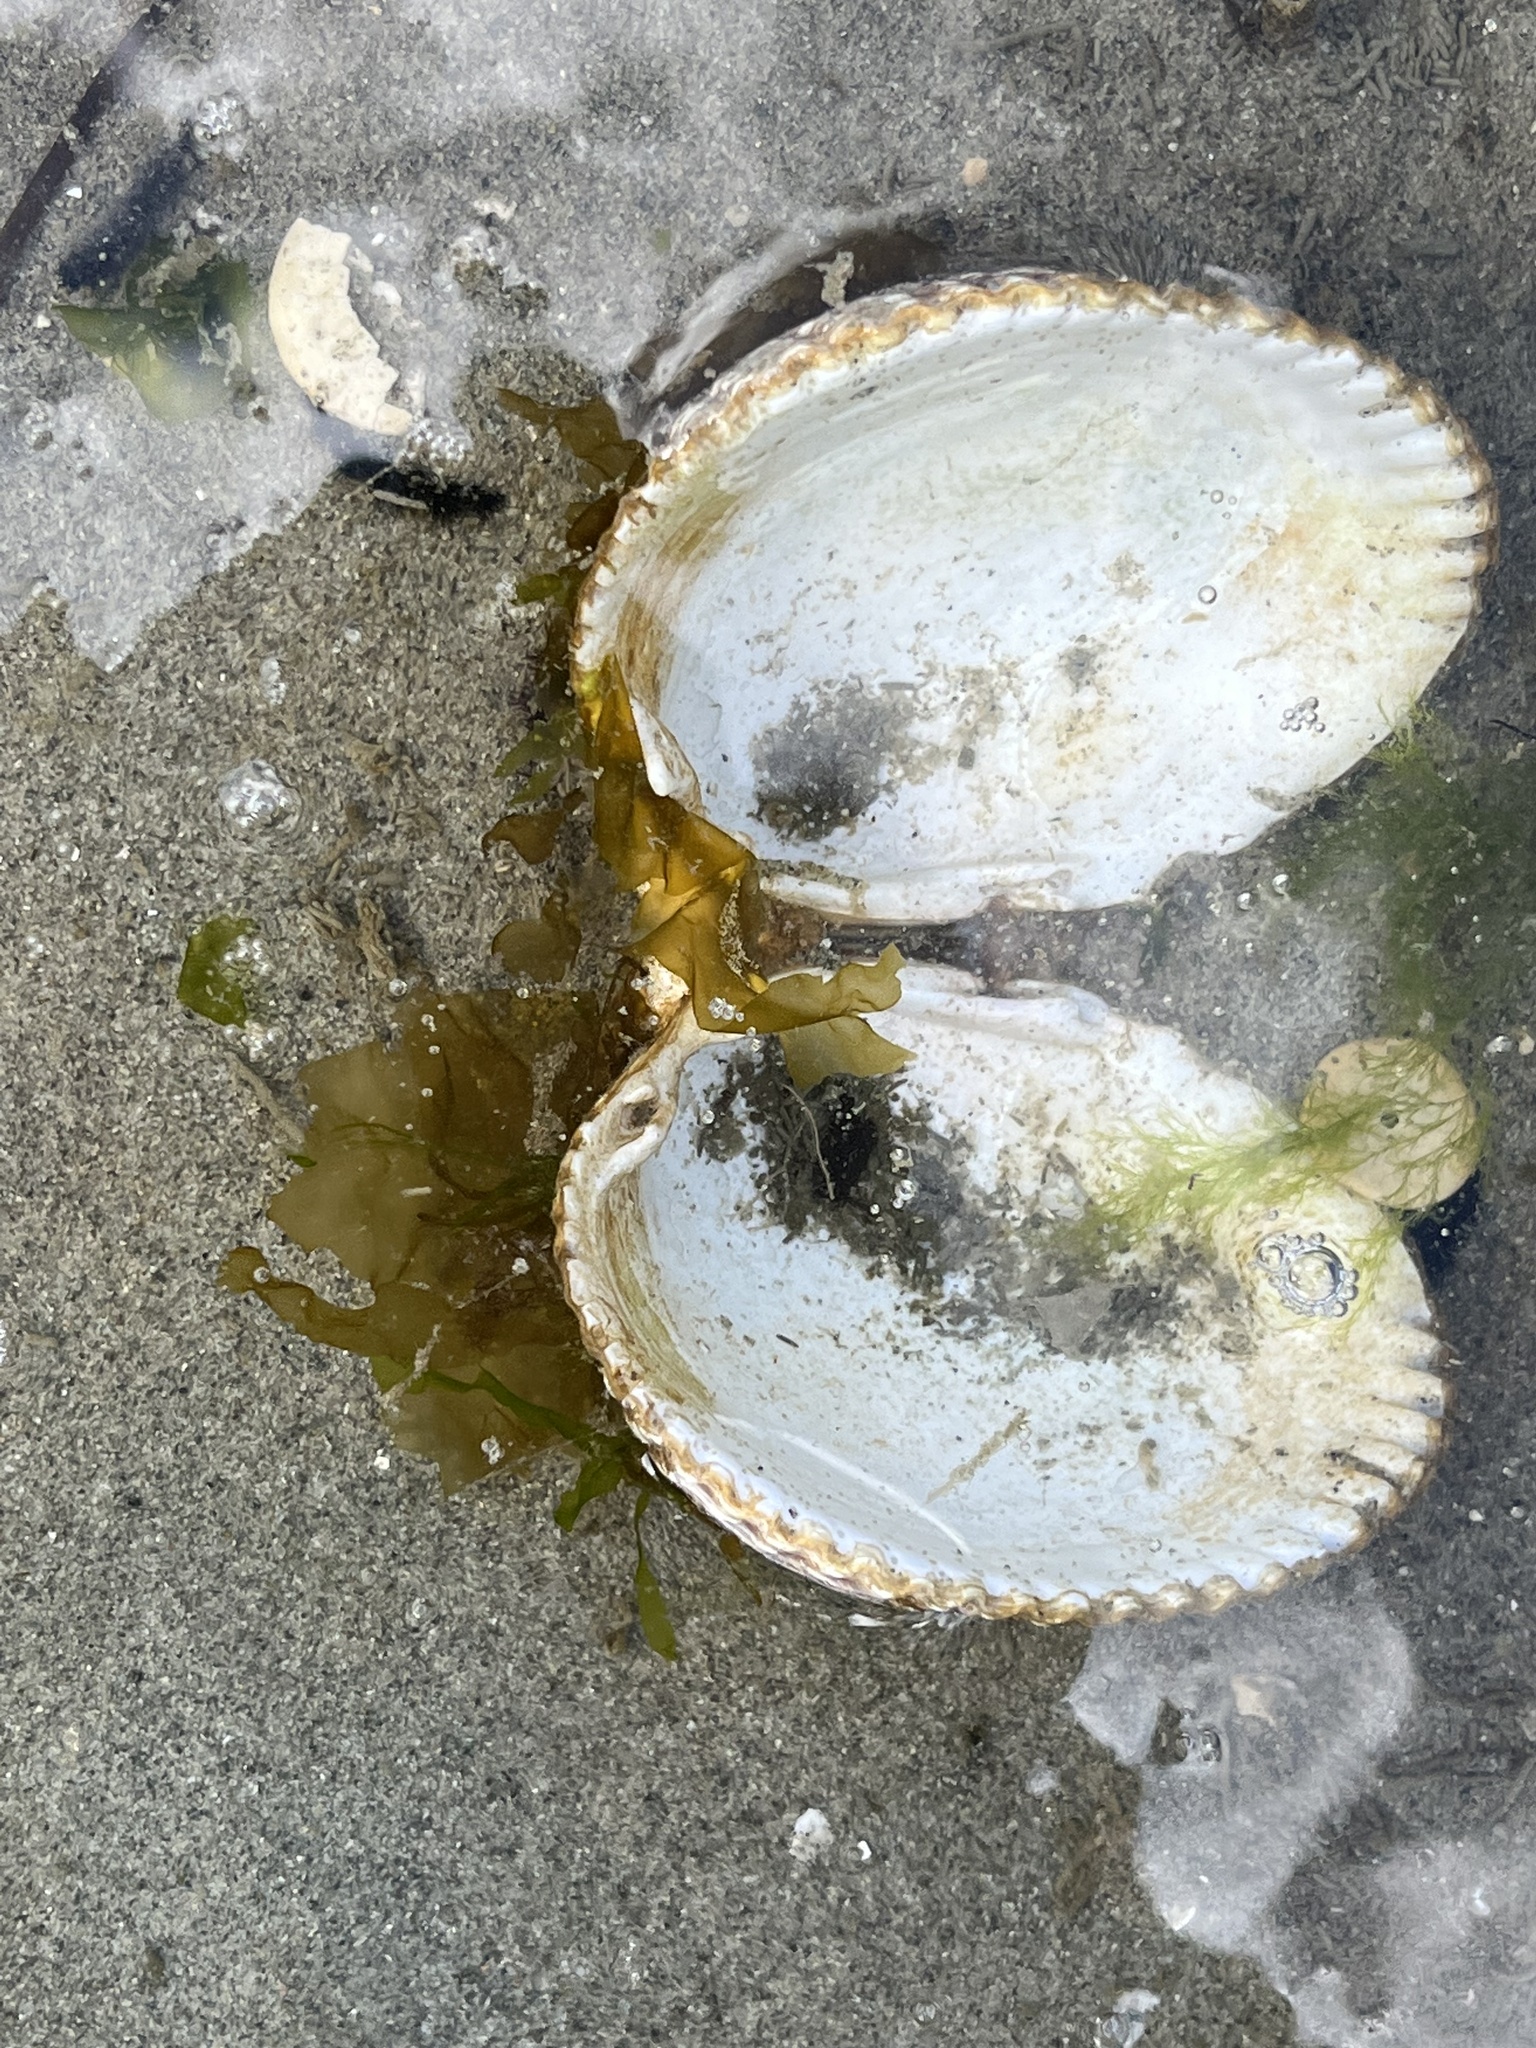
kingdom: Animalia
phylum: Mollusca
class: Bivalvia
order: Cardiida
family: Cardiidae
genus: Clinocardium
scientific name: Clinocardium nuttallii
